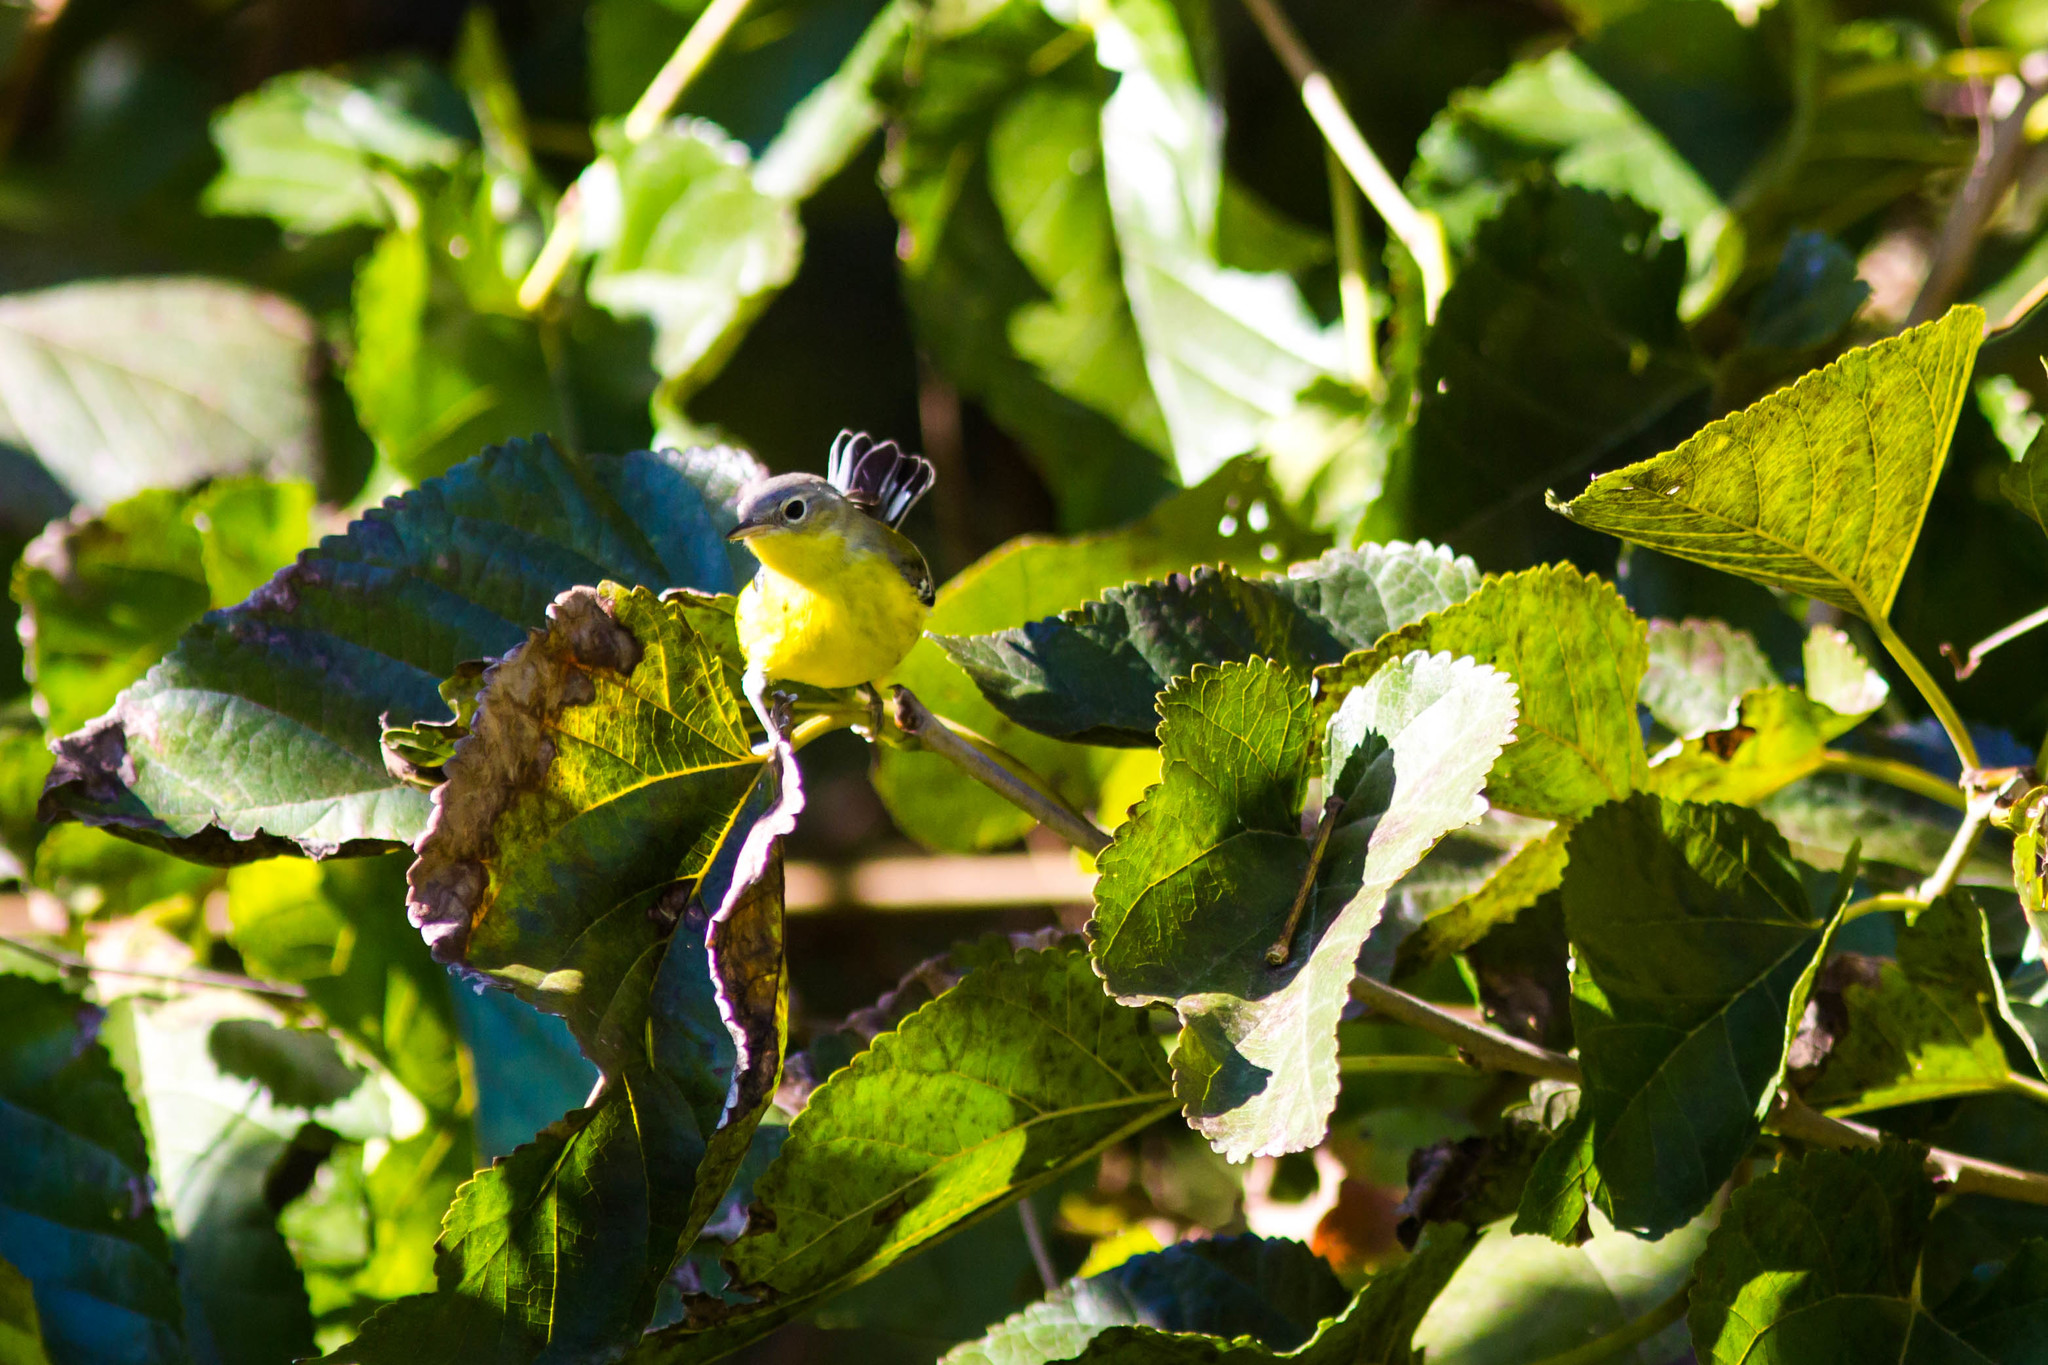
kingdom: Animalia
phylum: Chordata
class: Aves
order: Passeriformes
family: Parulidae
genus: Setophaga
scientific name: Setophaga magnolia
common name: Magnolia warbler
